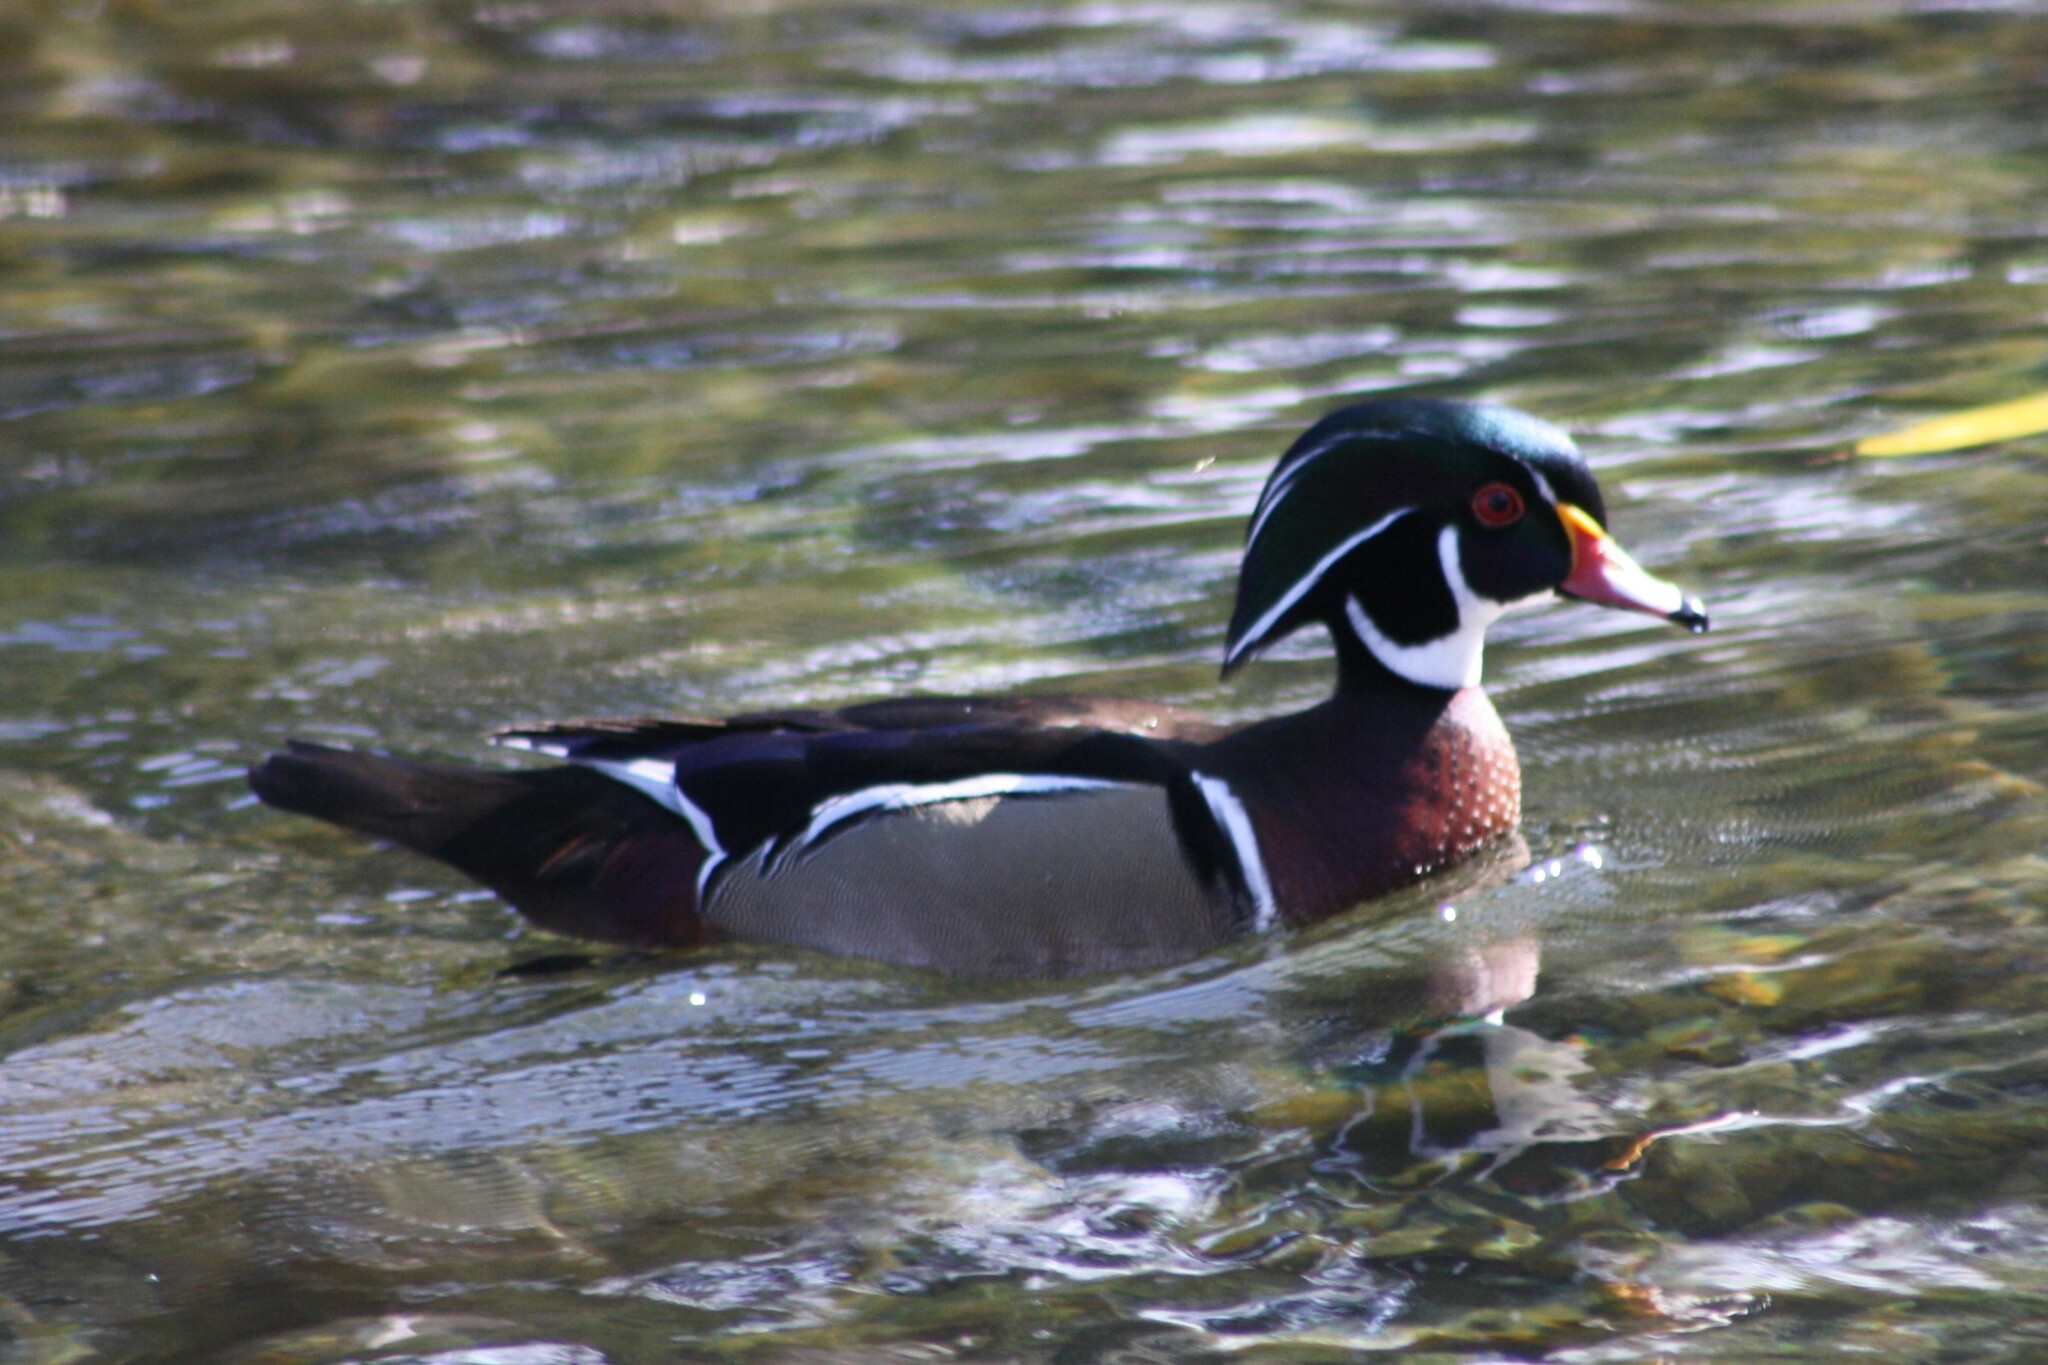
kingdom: Animalia
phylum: Chordata
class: Aves
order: Anseriformes
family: Anatidae
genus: Aix
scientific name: Aix sponsa
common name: Wood duck
